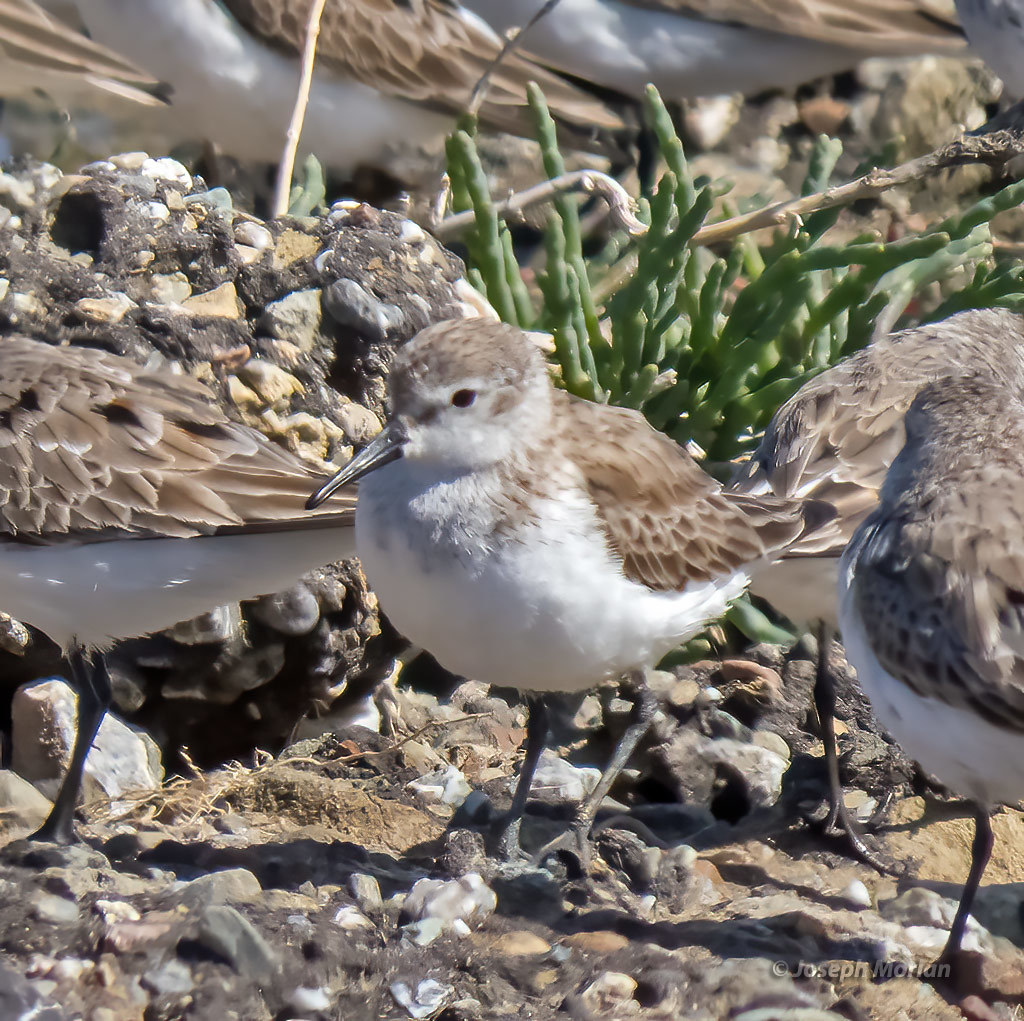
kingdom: Animalia
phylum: Chordata
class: Aves
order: Charadriiformes
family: Scolopacidae
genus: Calidris
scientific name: Calidris mauri
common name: Western sandpiper
